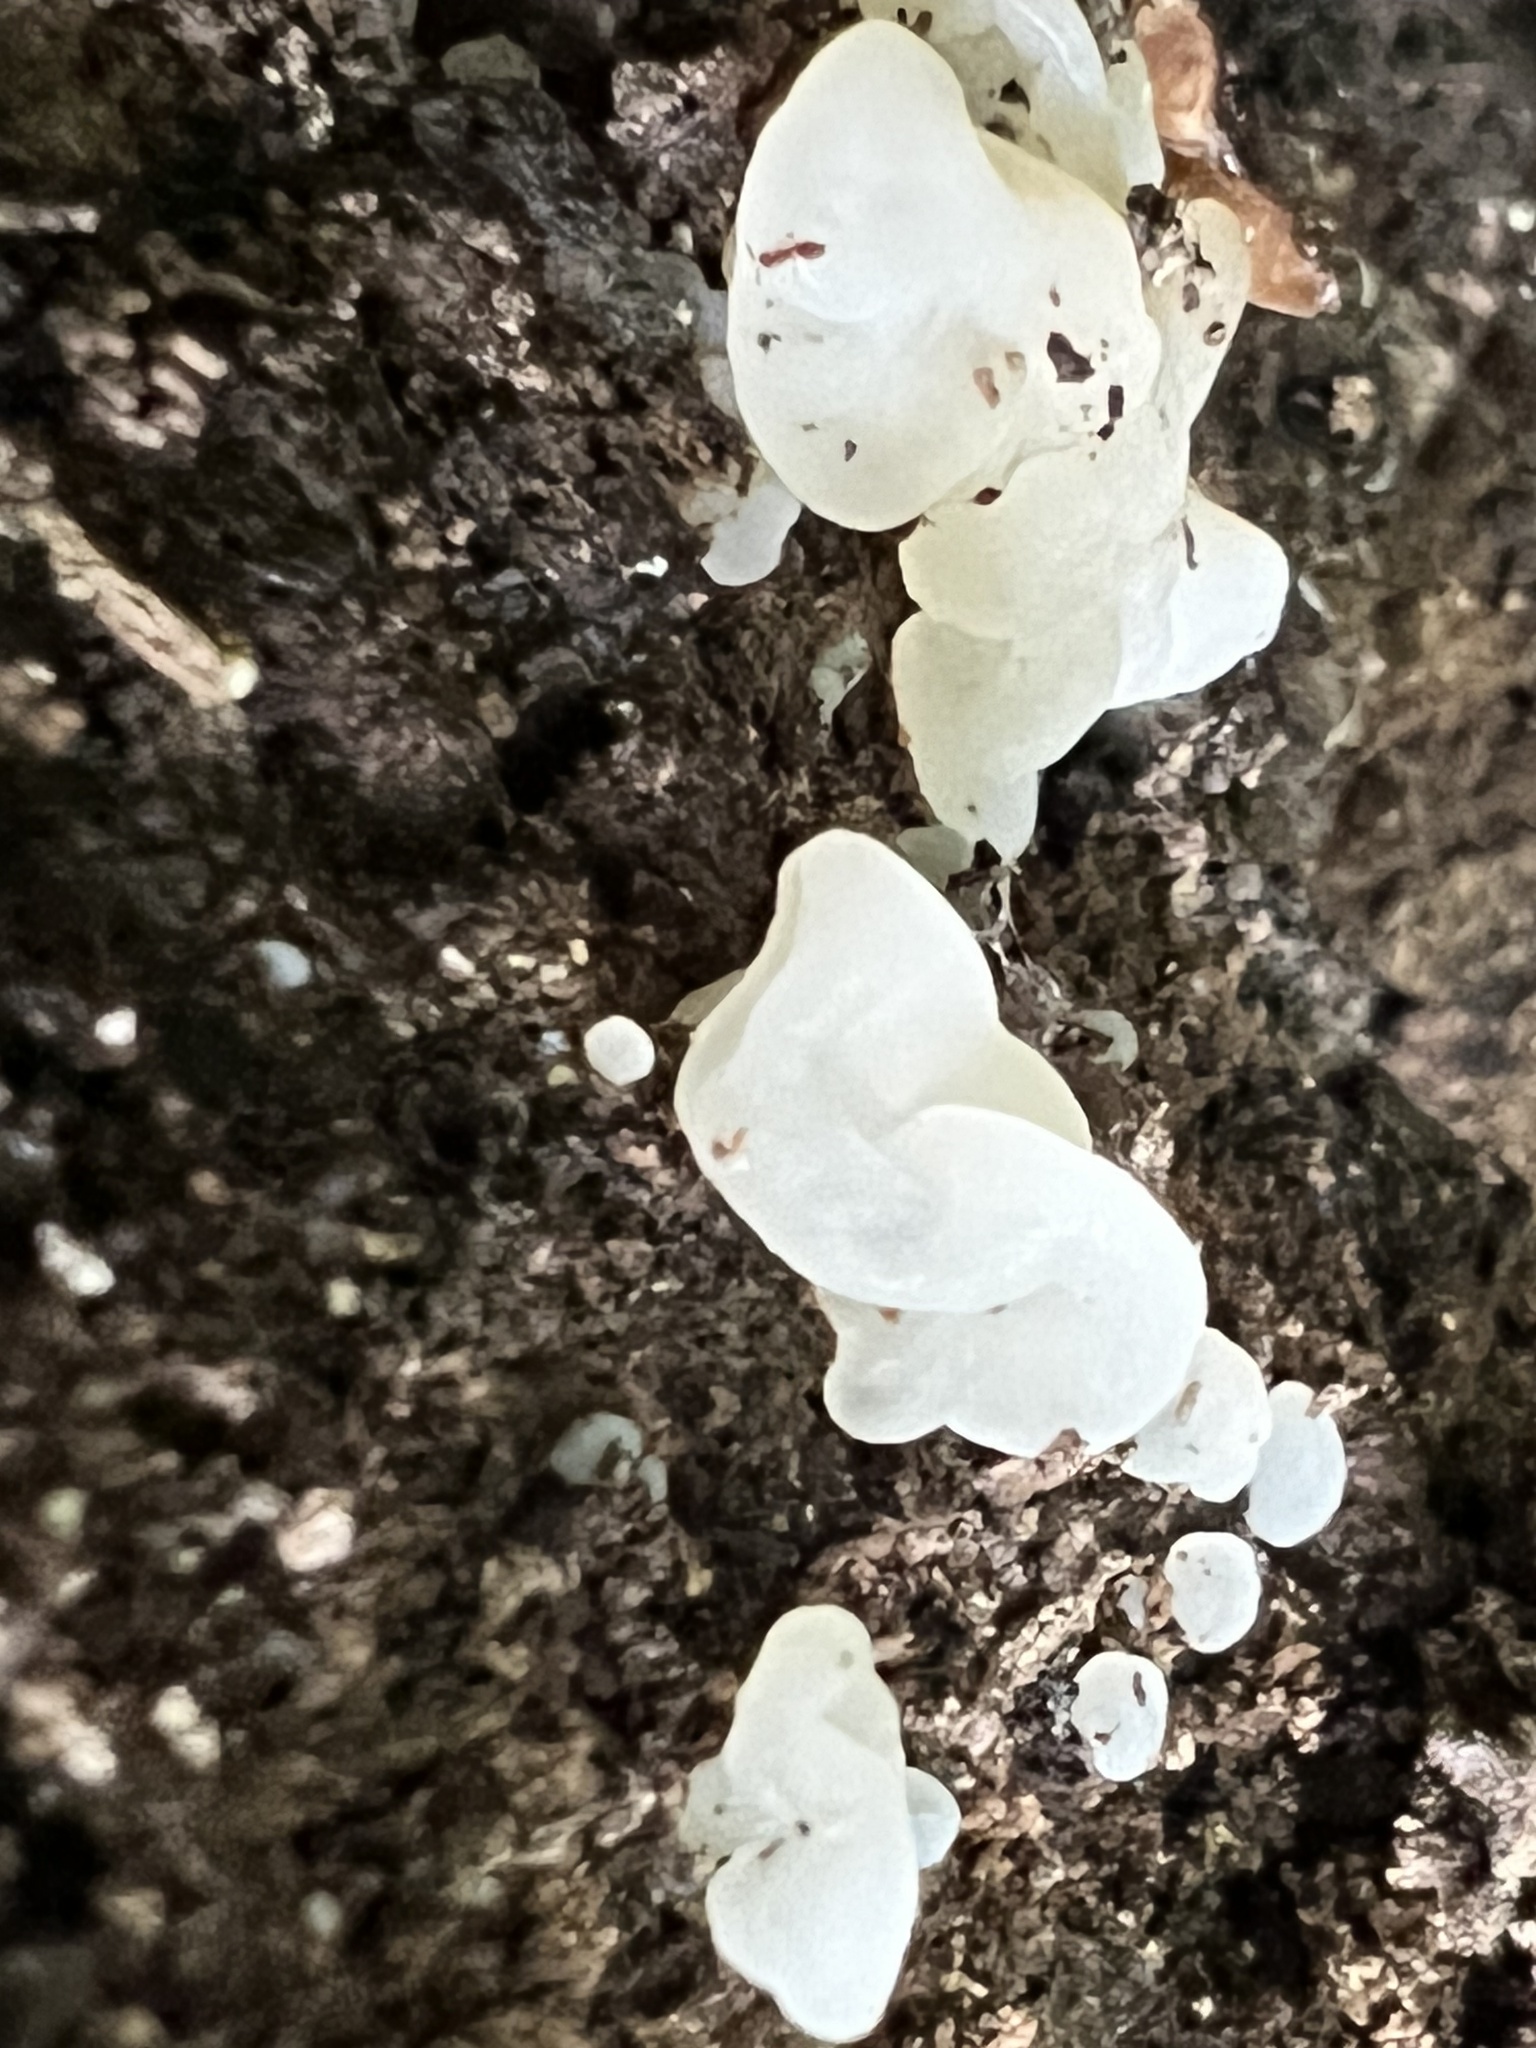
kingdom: Fungi
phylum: Basidiomycota
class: Agaricomycetes
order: Auriculariales
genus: Ductifera
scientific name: Ductifera pululahuana
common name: White jelly fungus
